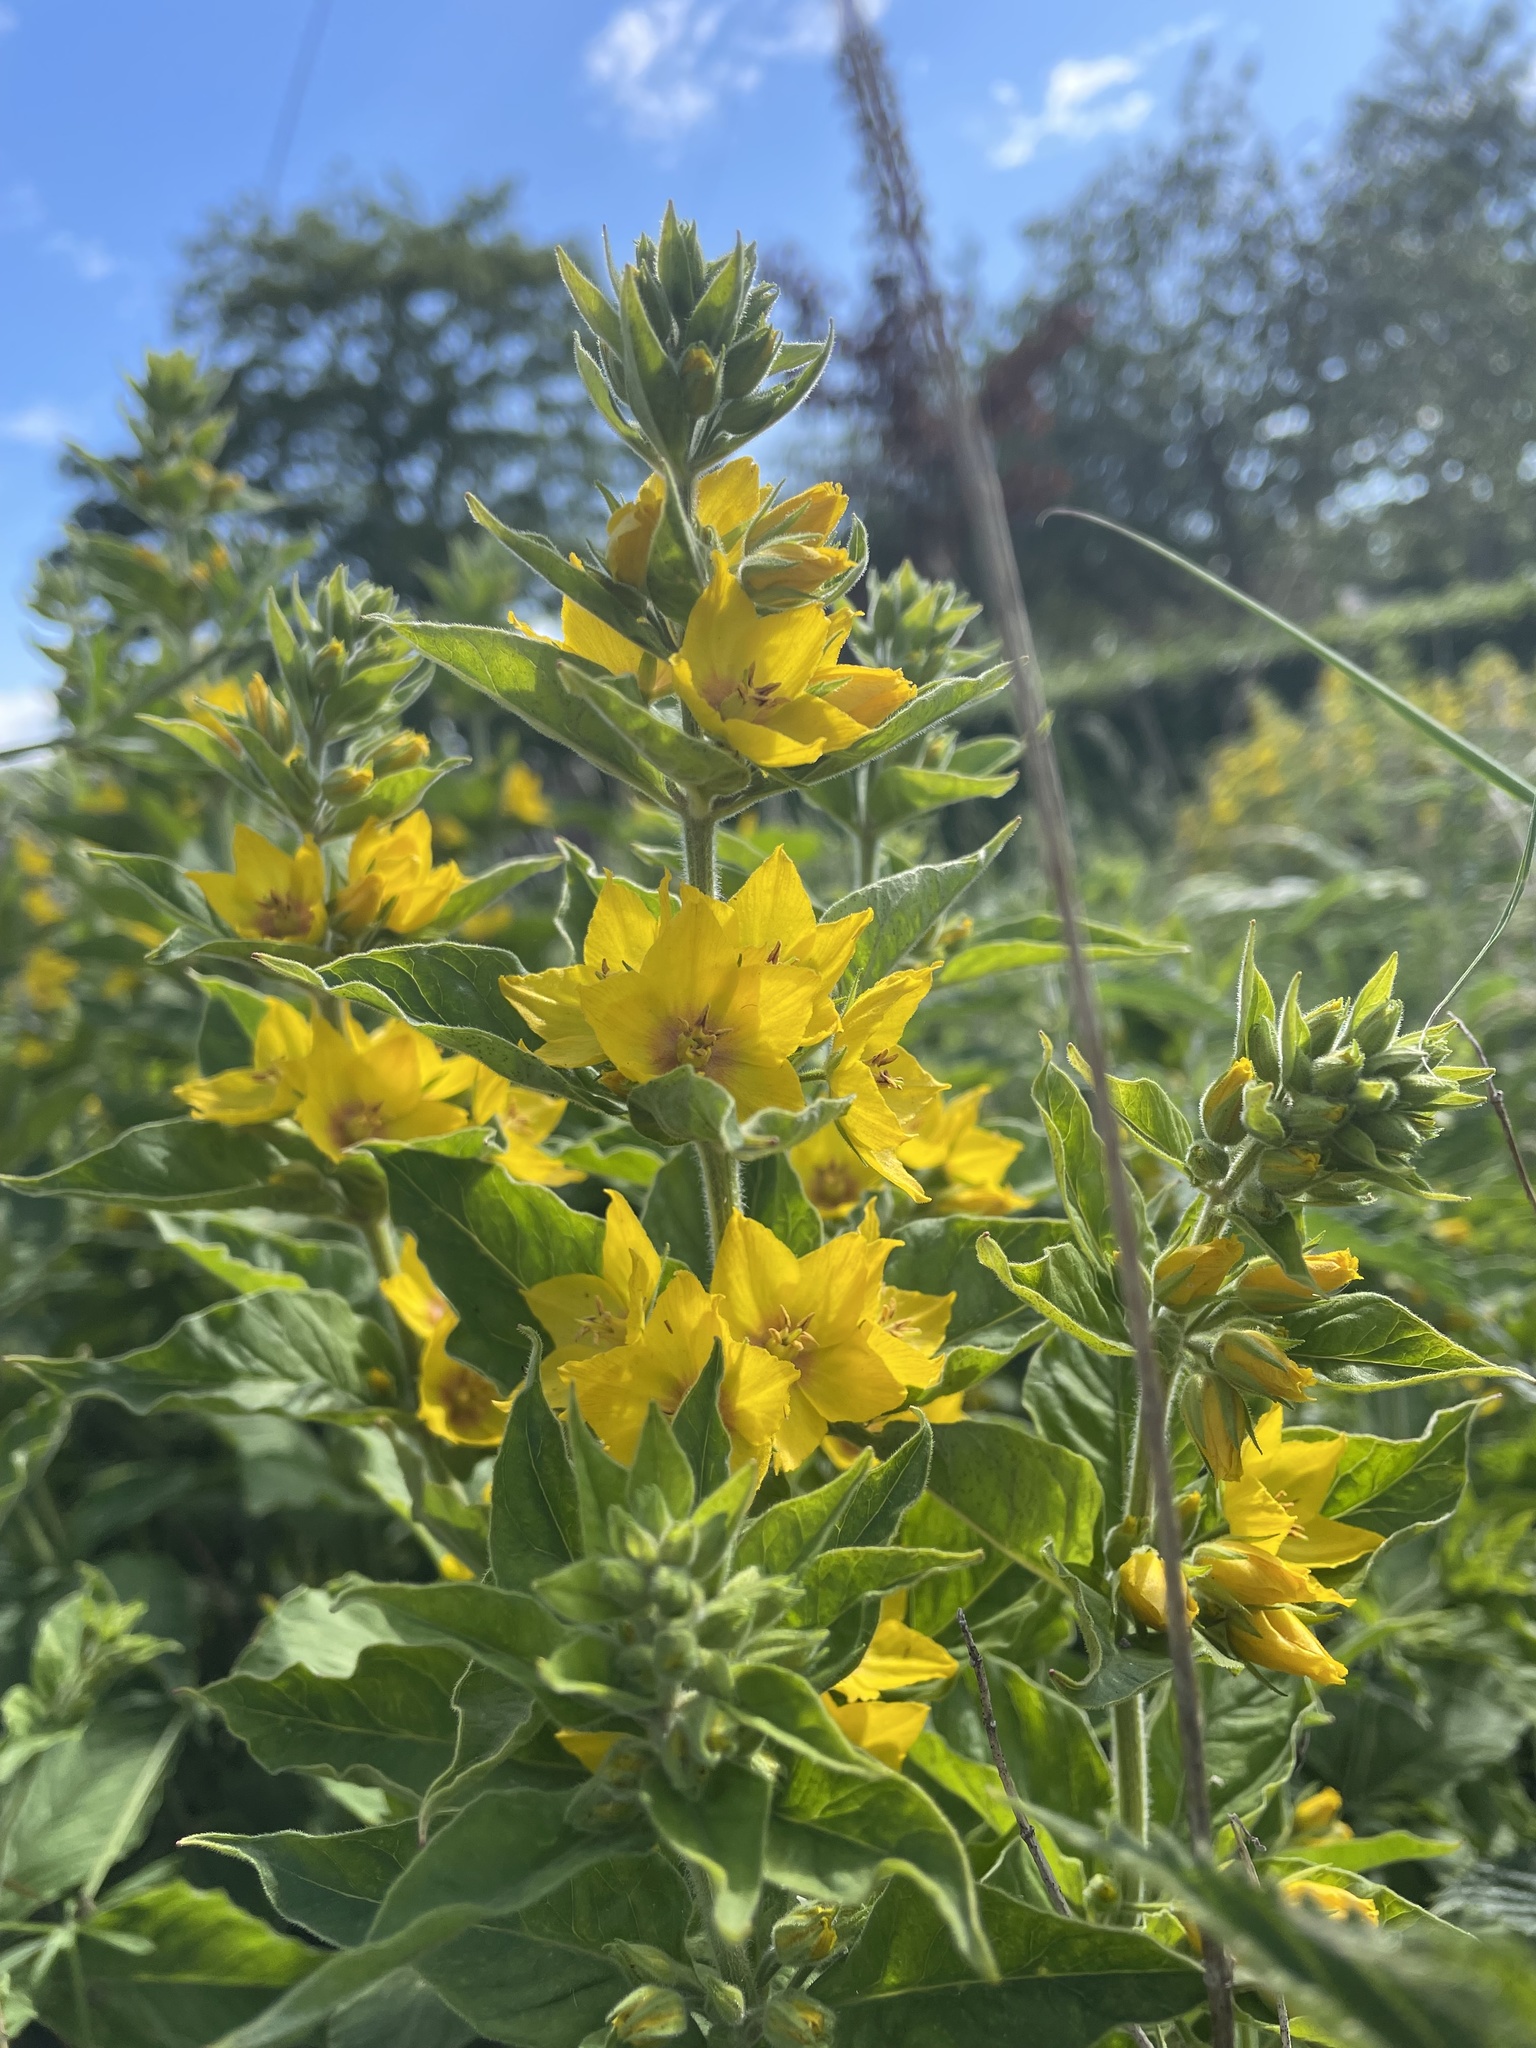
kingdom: Plantae
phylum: Tracheophyta
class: Magnoliopsida
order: Ericales
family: Primulaceae
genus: Lysimachia
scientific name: Lysimachia punctata
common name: Dotted loosestrife
